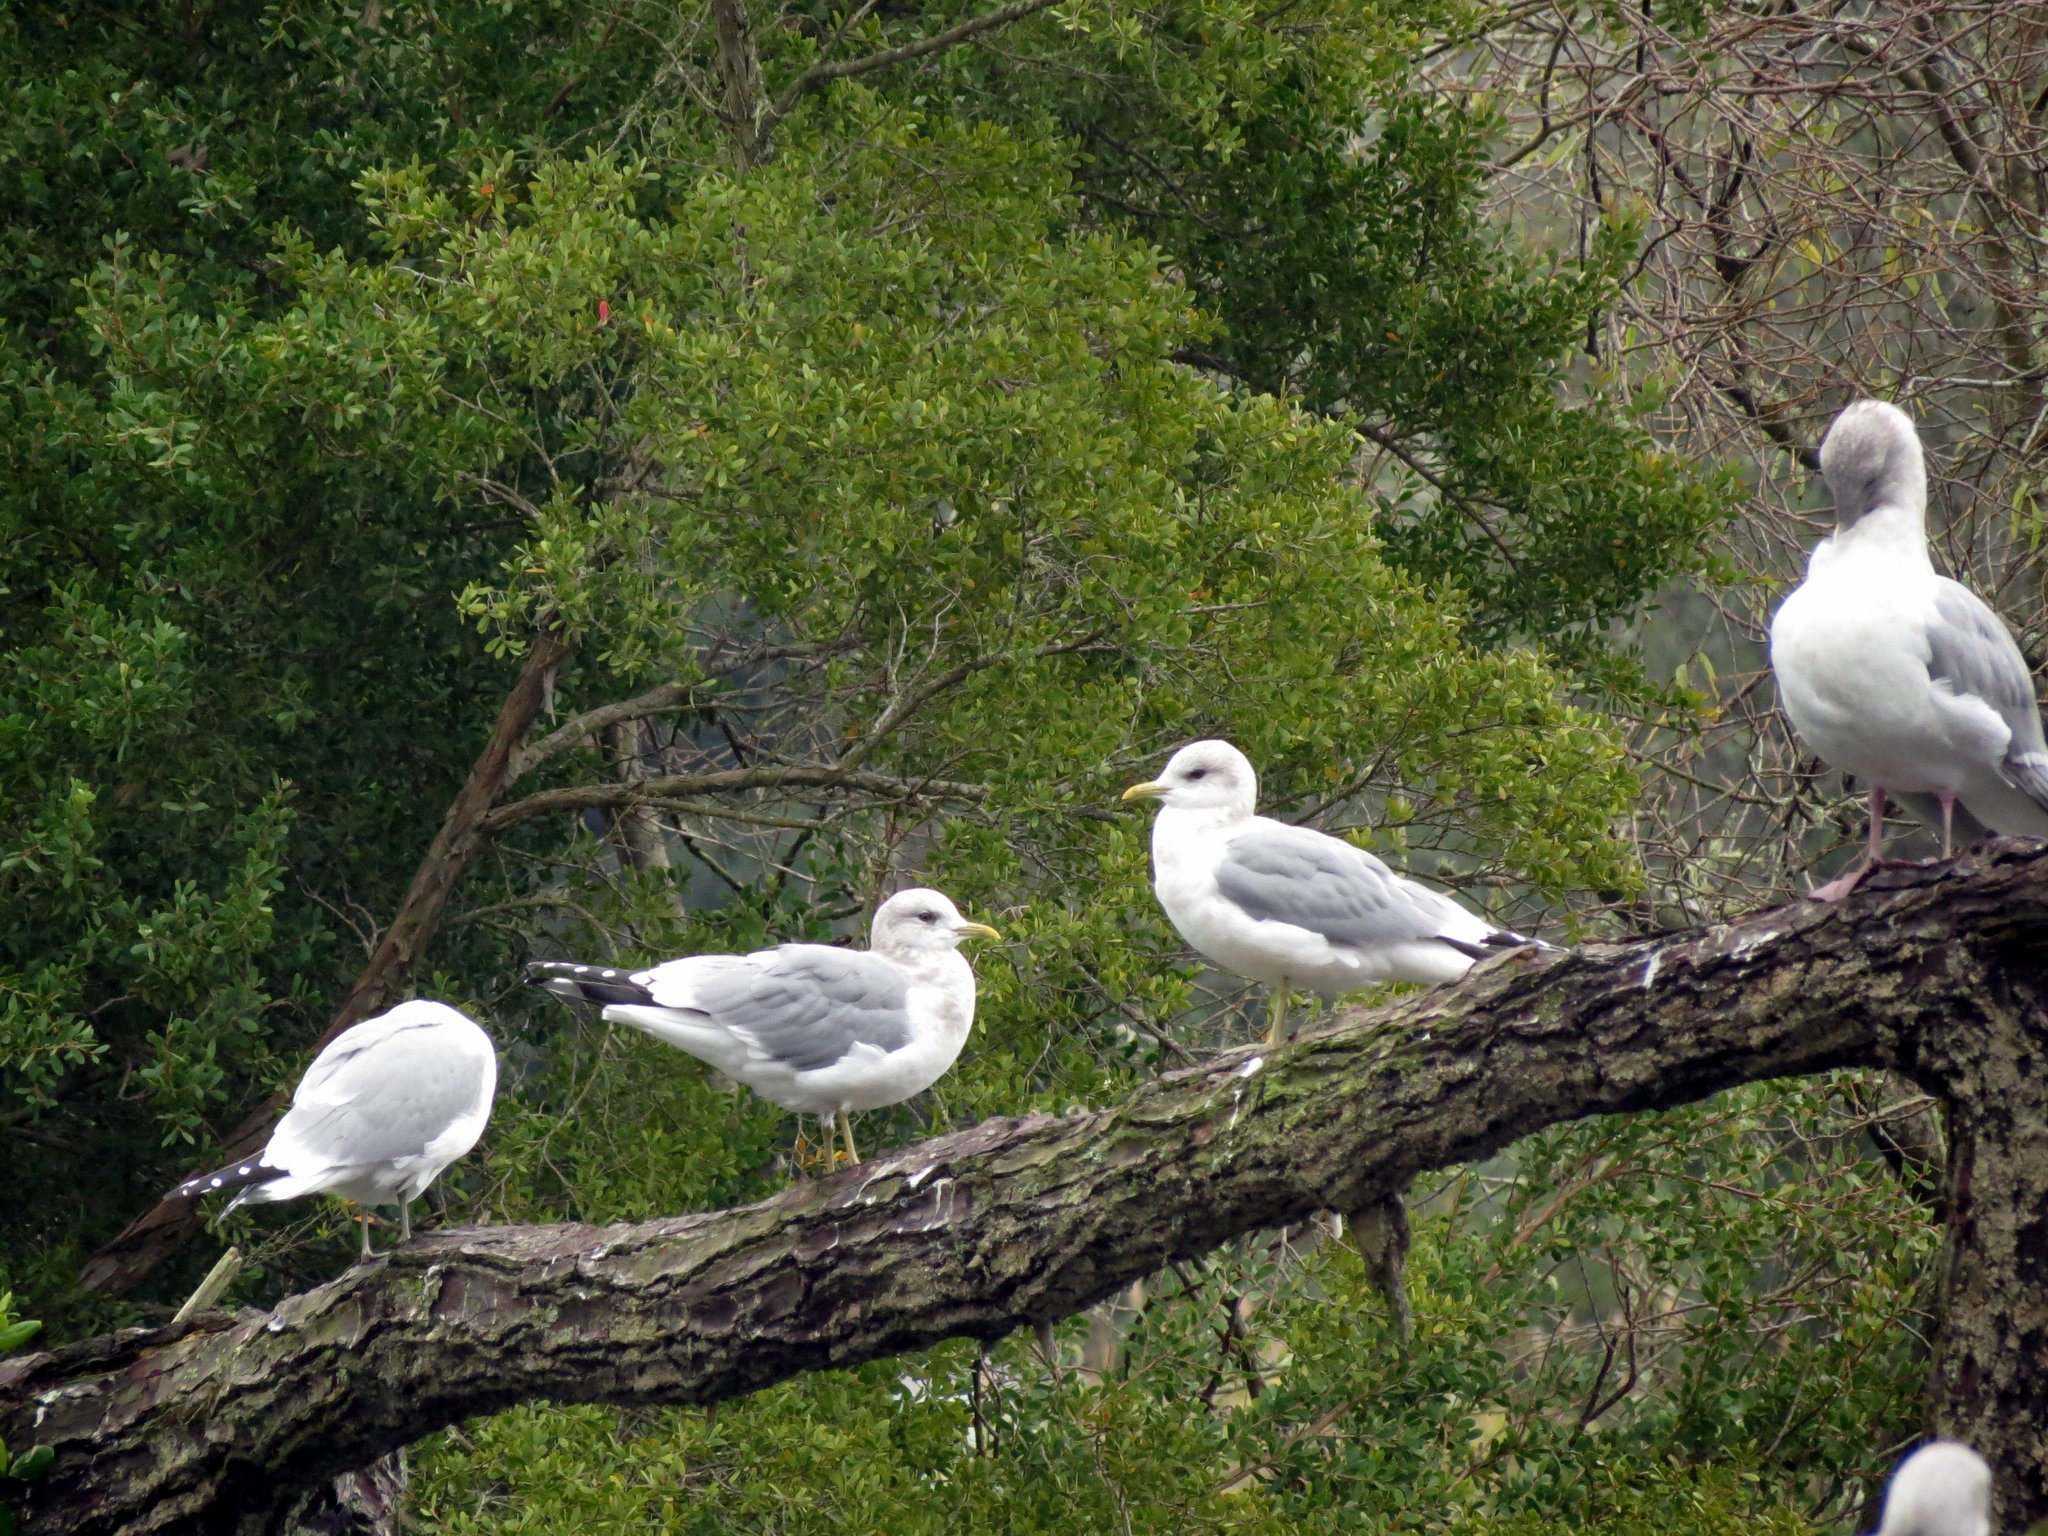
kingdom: Animalia
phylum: Chordata
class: Aves
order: Charadriiformes
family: Laridae
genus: Larus
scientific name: Larus brachyrhynchus
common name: Short-billed gull
